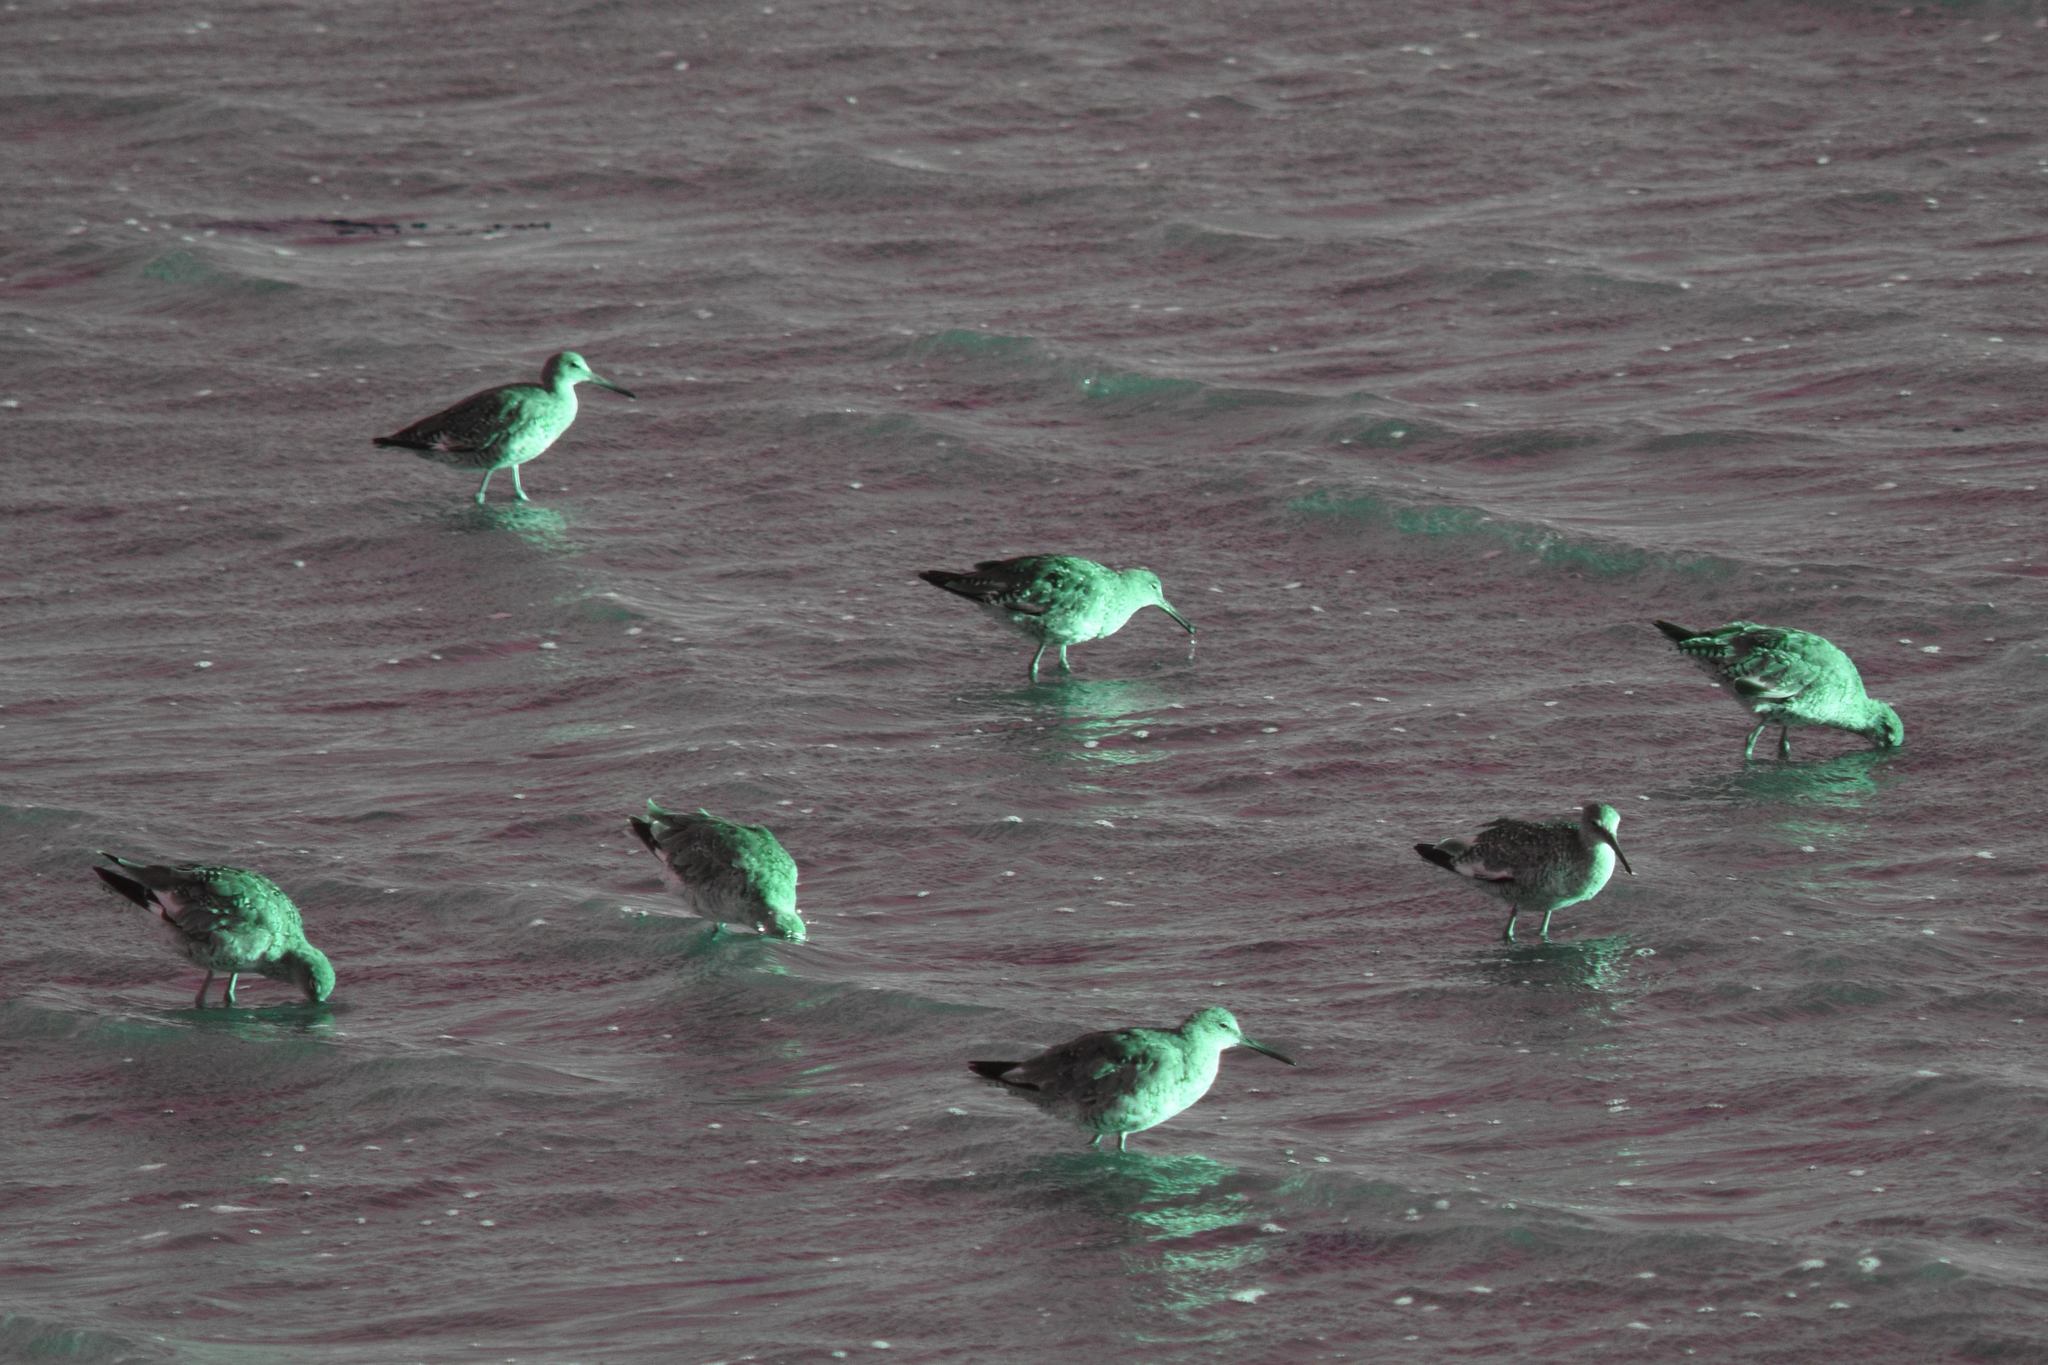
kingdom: Animalia
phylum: Chordata
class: Aves
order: Charadriiformes
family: Scolopacidae
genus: Tringa
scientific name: Tringa semipalmata
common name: Willet
